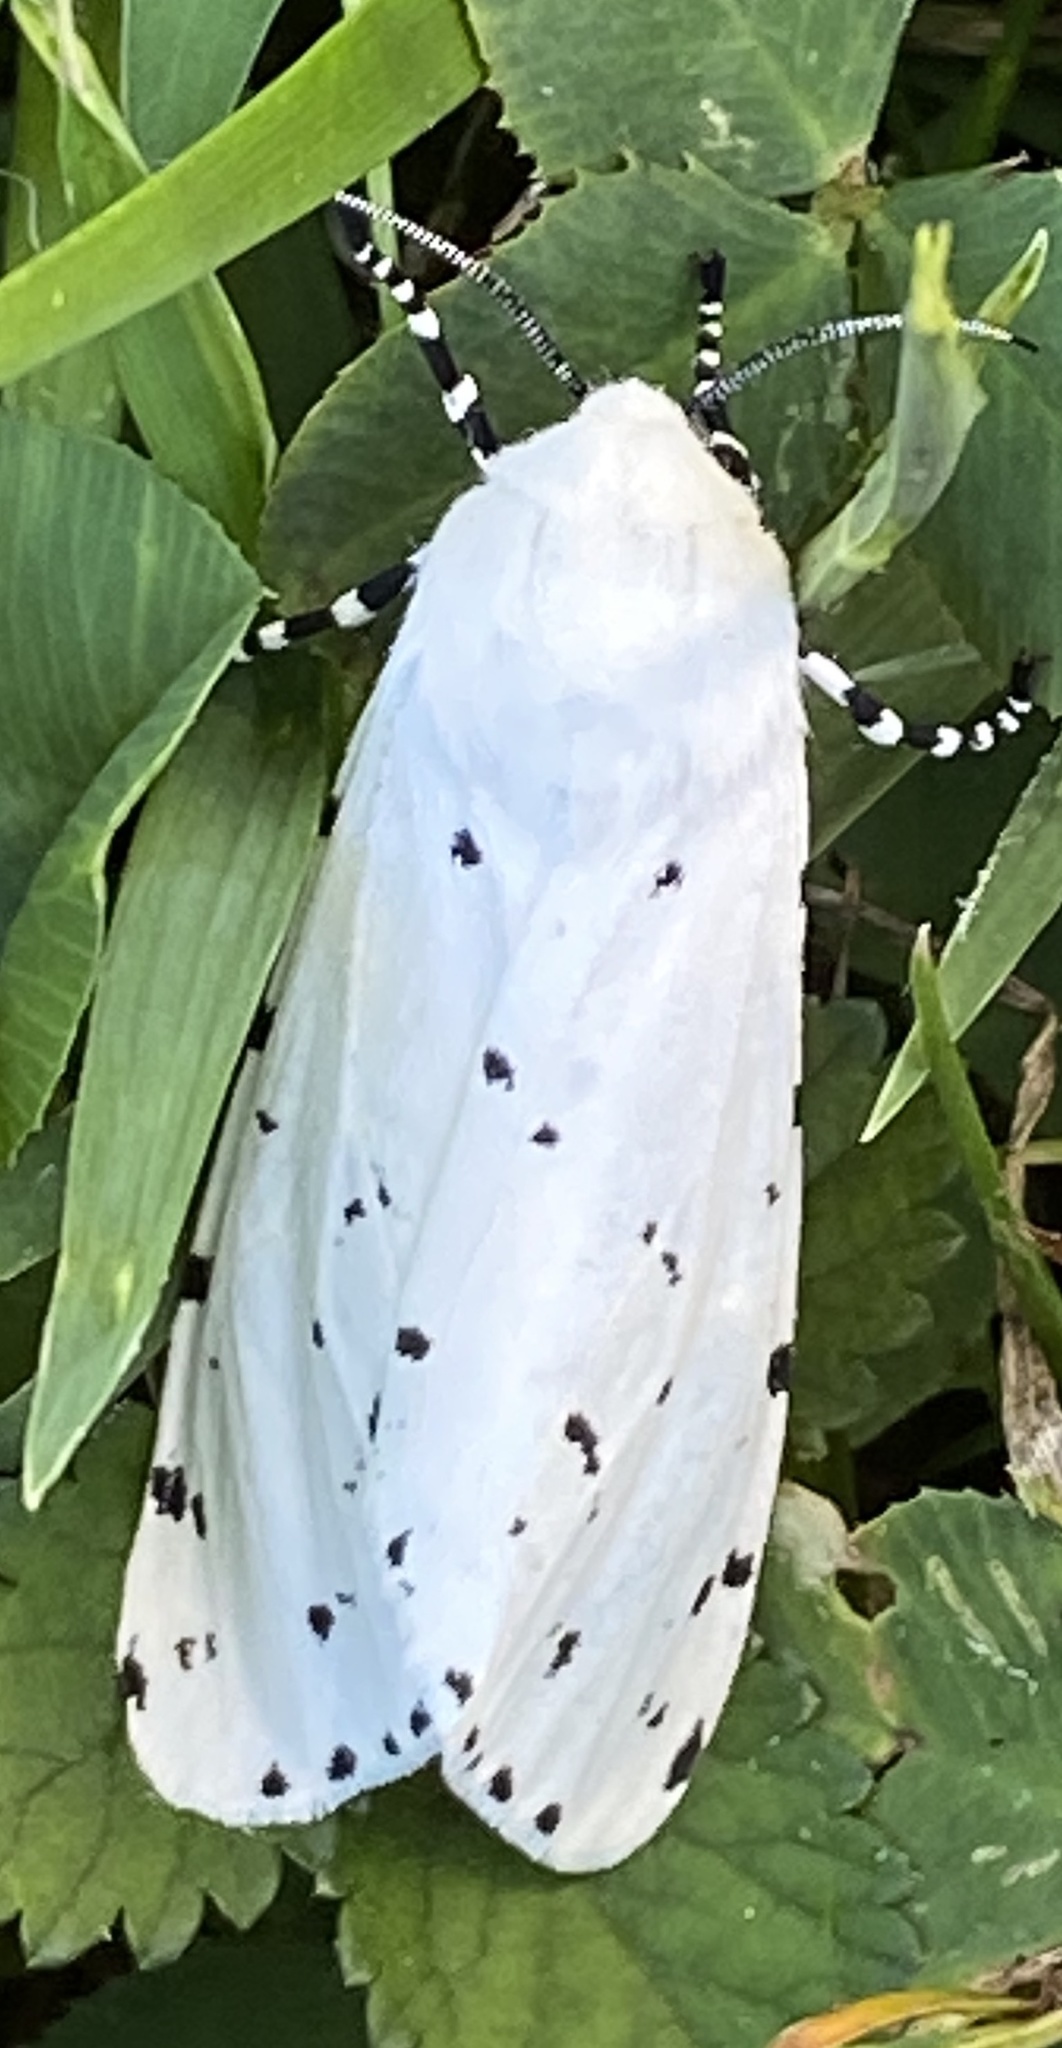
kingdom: Animalia
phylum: Arthropoda
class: Insecta
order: Lepidoptera
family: Erebidae
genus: Estigmene
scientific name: Estigmene acrea
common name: Salt marsh moth
